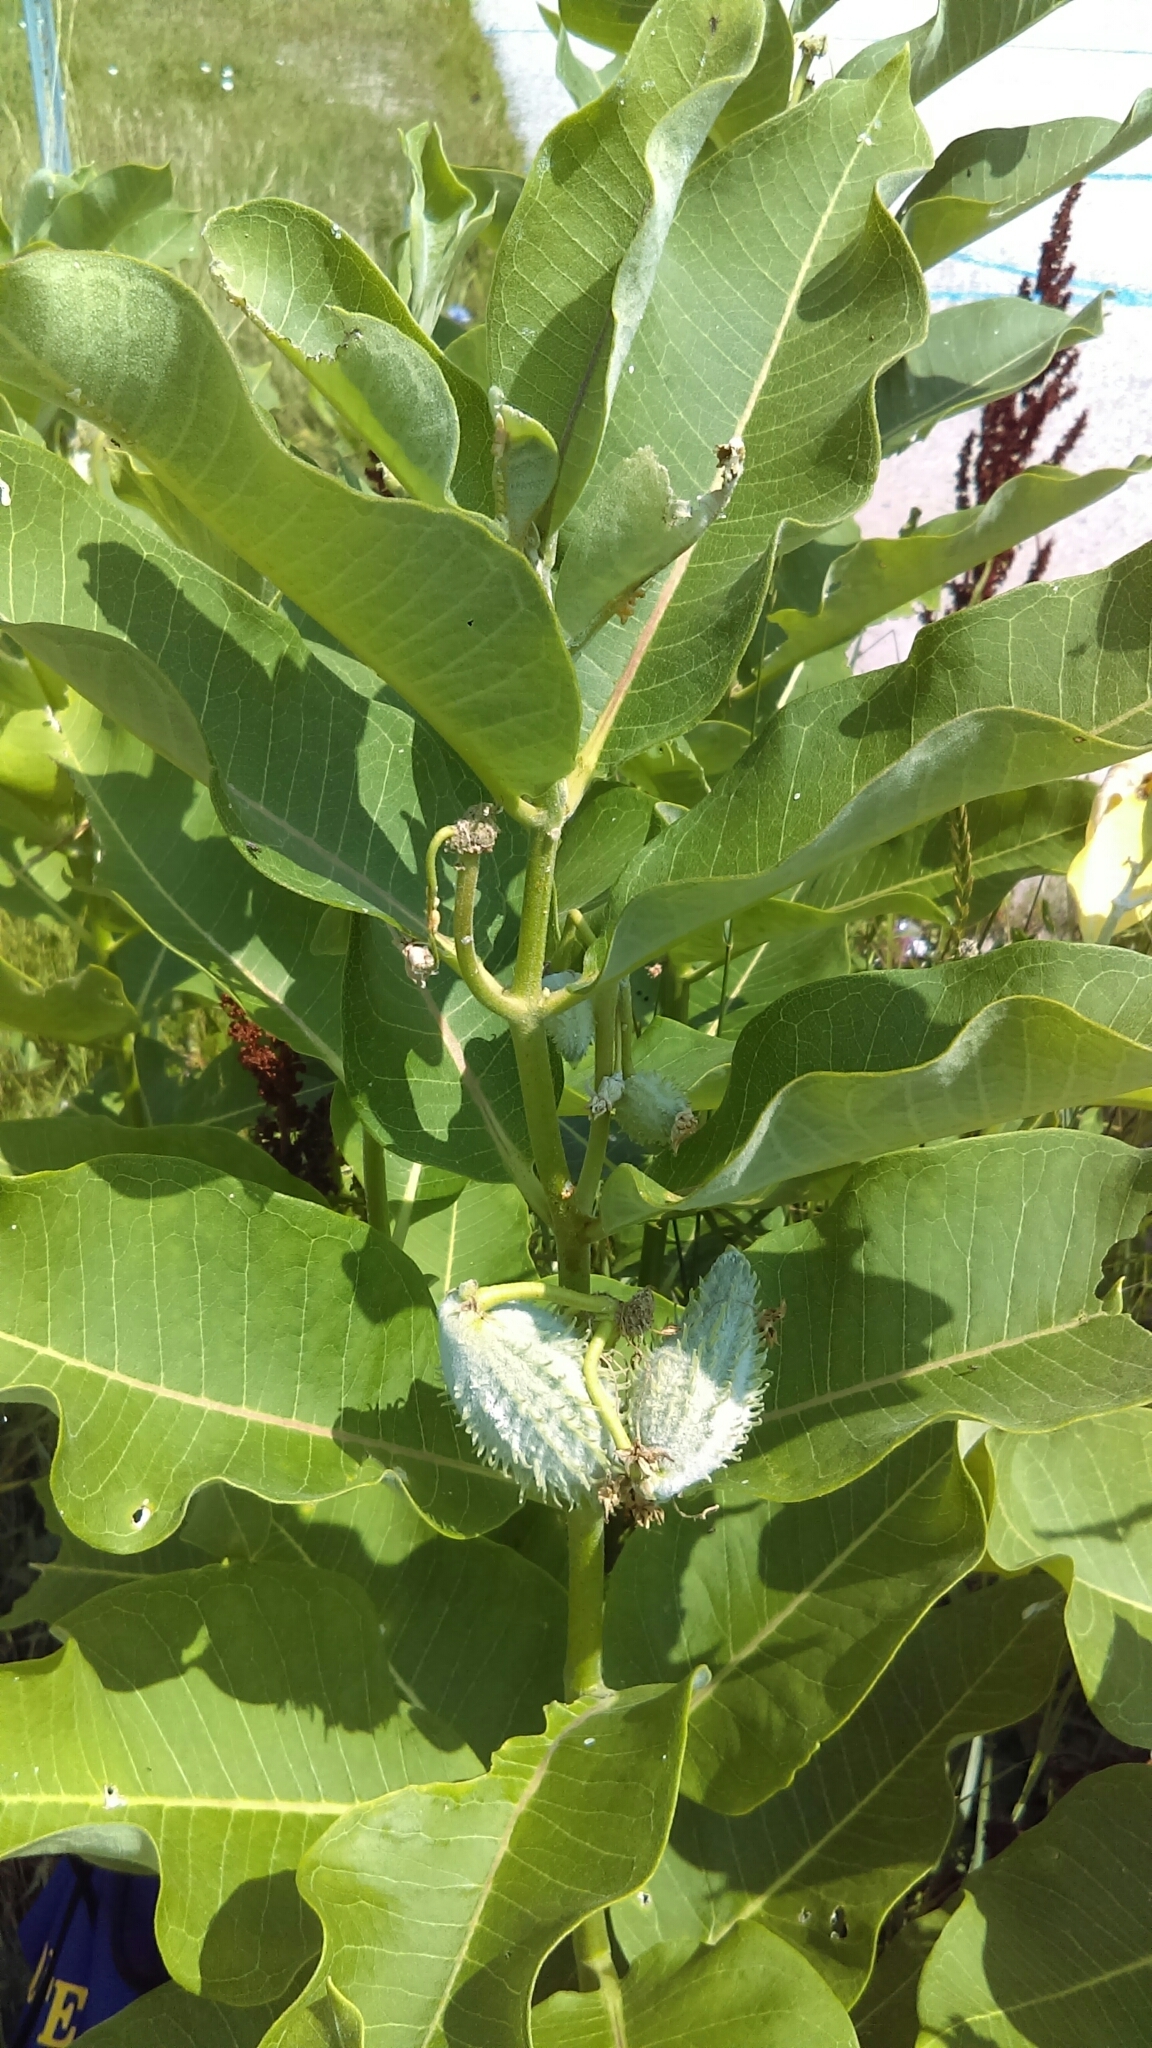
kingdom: Plantae
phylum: Tracheophyta
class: Magnoliopsida
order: Gentianales
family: Apocynaceae
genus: Asclepias
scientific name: Asclepias syriaca
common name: Common milkweed
